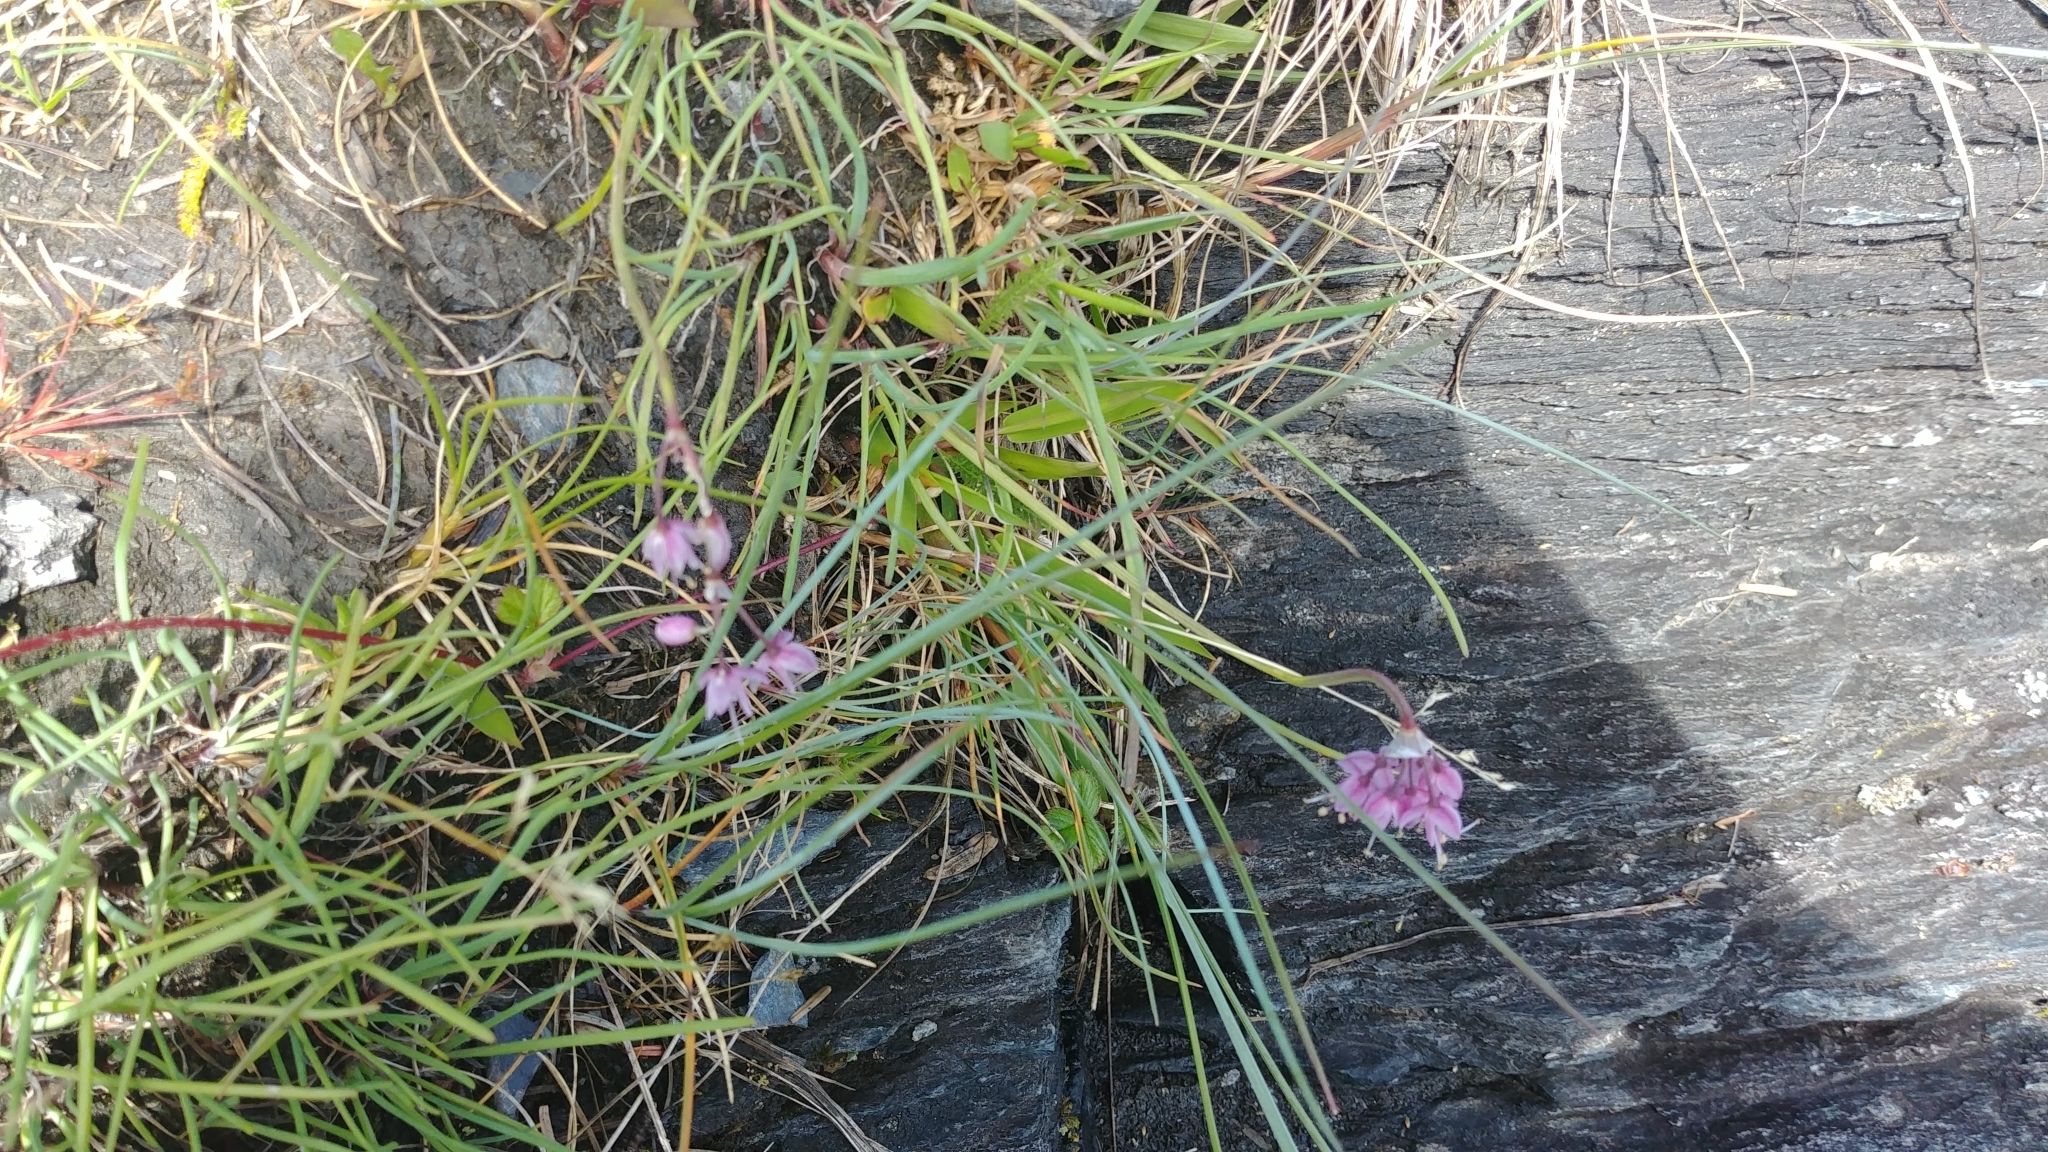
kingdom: Plantae
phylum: Tracheophyta
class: Liliopsida
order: Asparagales
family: Amaryllidaceae
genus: Allium
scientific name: Allium cernuum
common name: Nodding onion
